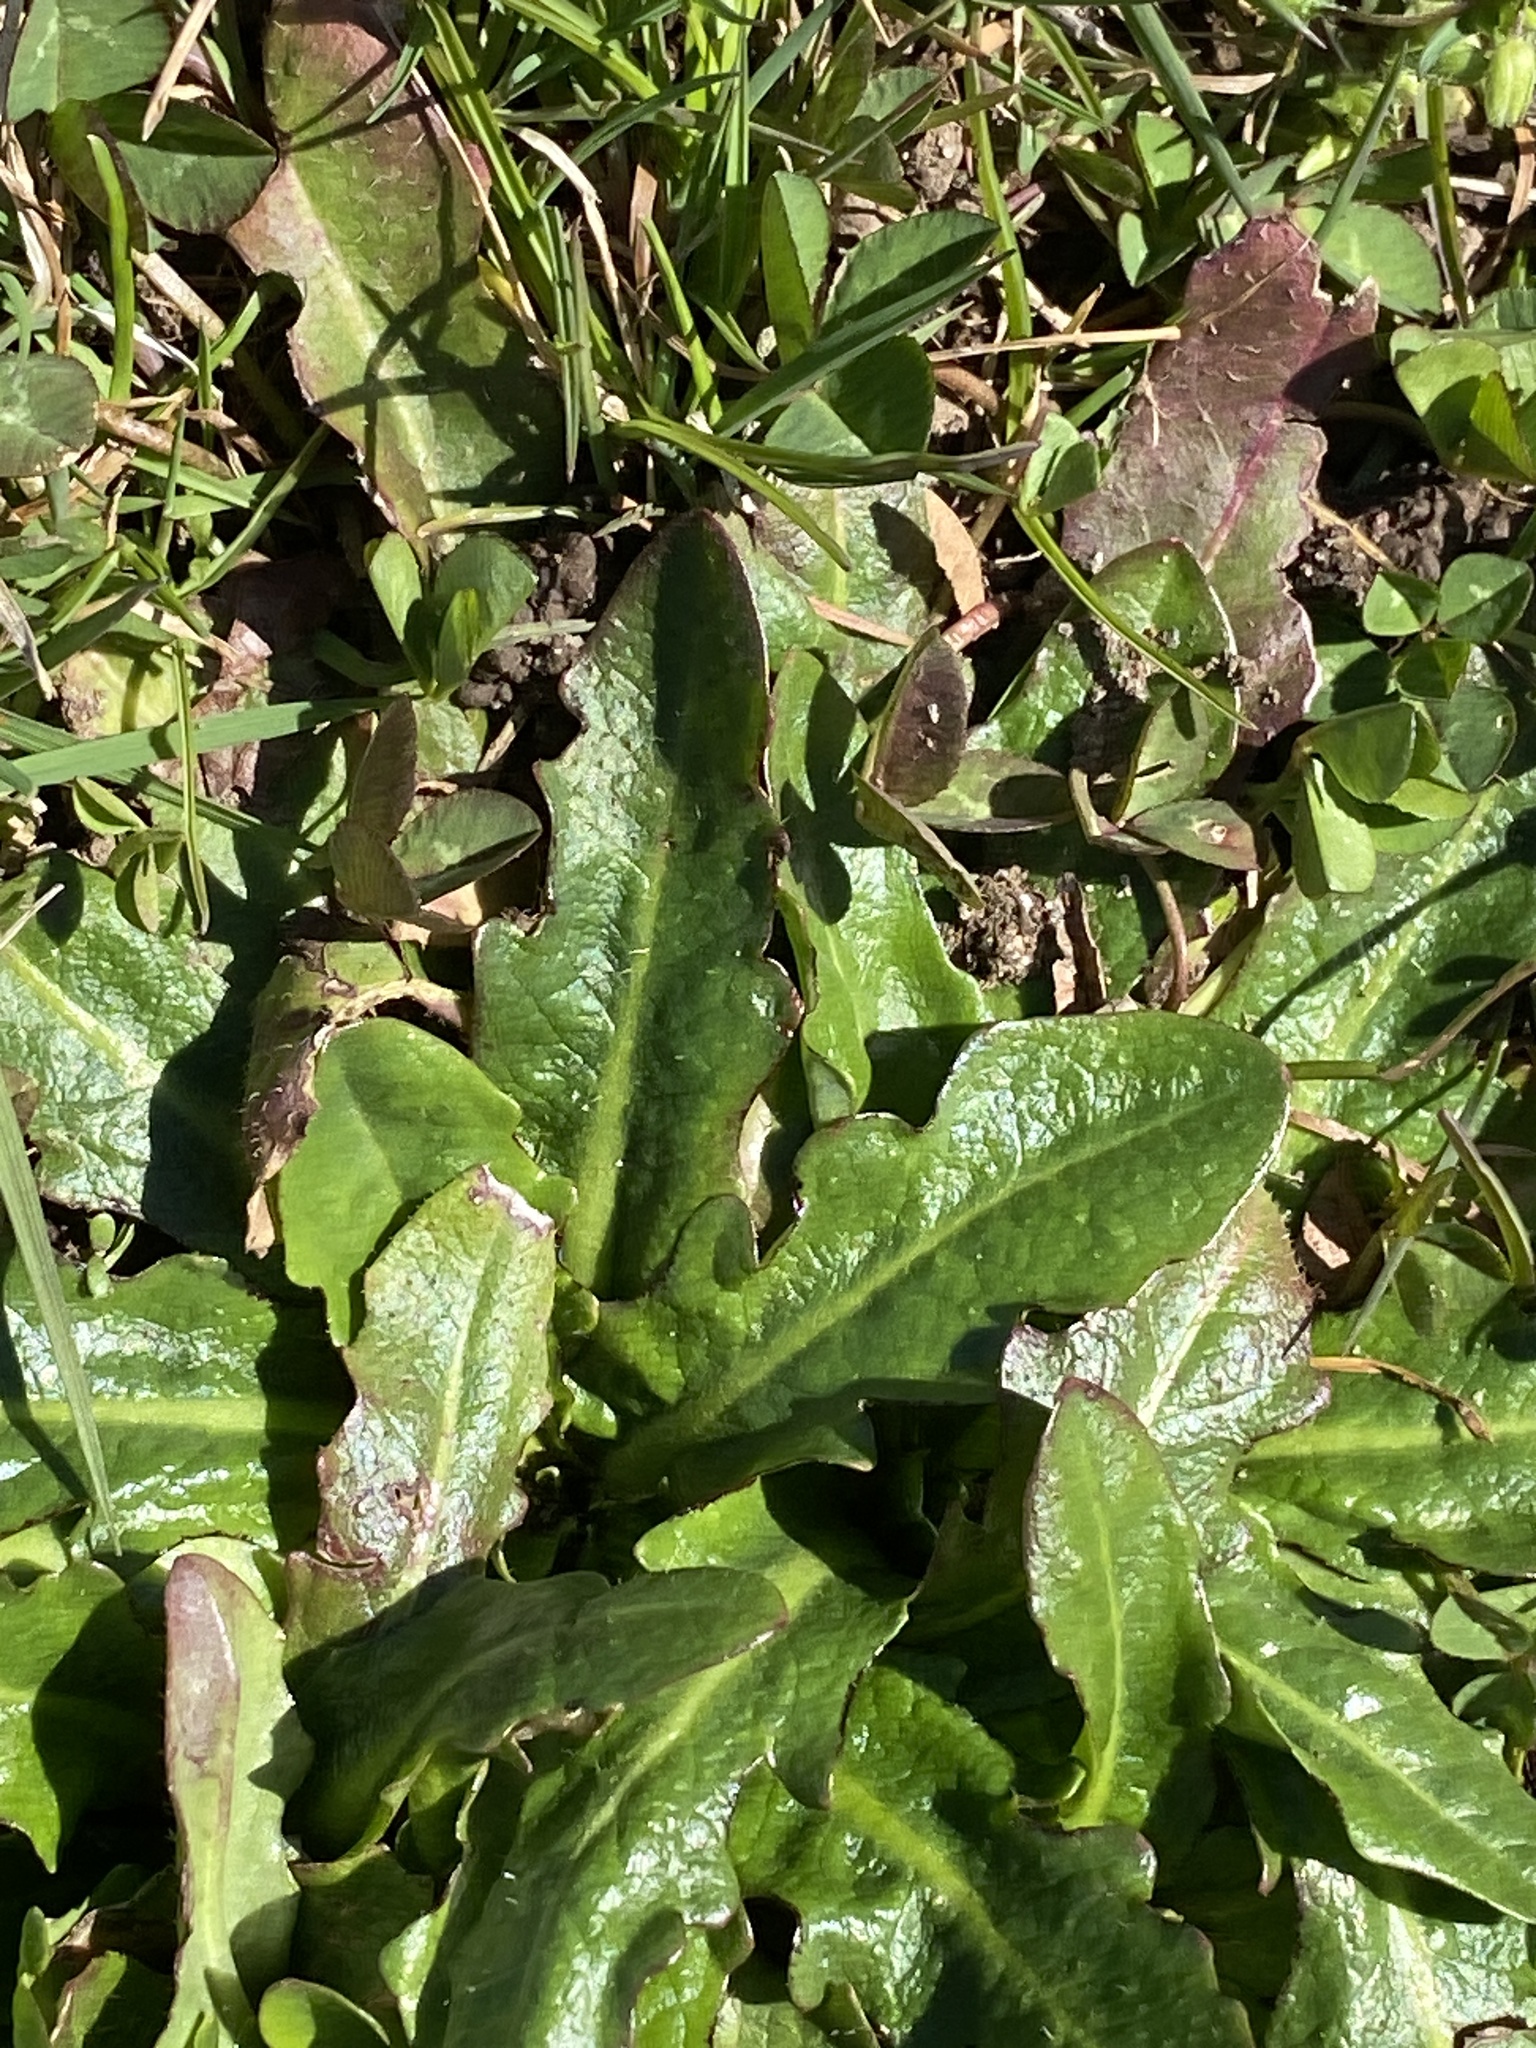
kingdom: Plantae
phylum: Tracheophyta
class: Magnoliopsida
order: Asterales
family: Asteraceae
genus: Hypochaeris
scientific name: Hypochaeris radicata
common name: Flatweed
